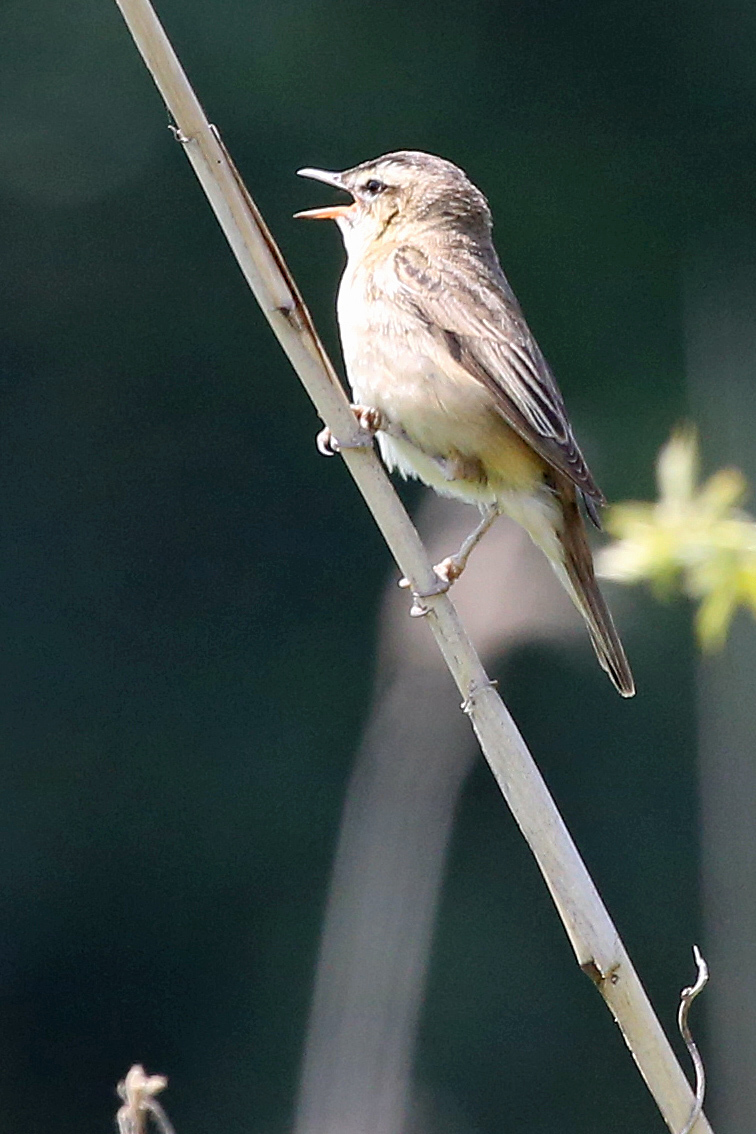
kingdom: Animalia
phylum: Chordata
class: Aves
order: Passeriformes
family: Acrocephalidae
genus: Acrocephalus
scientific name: Acrocephalus schoenobaenus
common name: Sedge warbler
